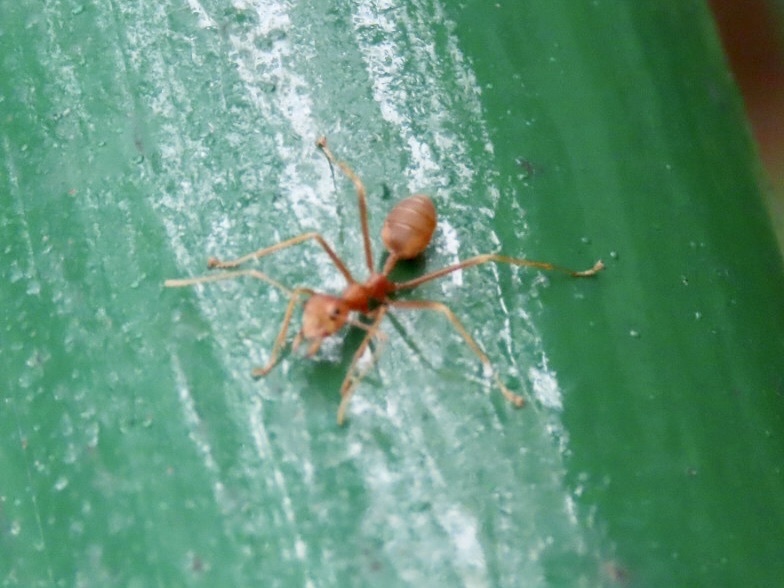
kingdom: Animalia
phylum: Arthropoda
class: Insecta
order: Hymenoptera
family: Formicidae
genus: Oecophylla
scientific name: Oecophylla smaragdina
